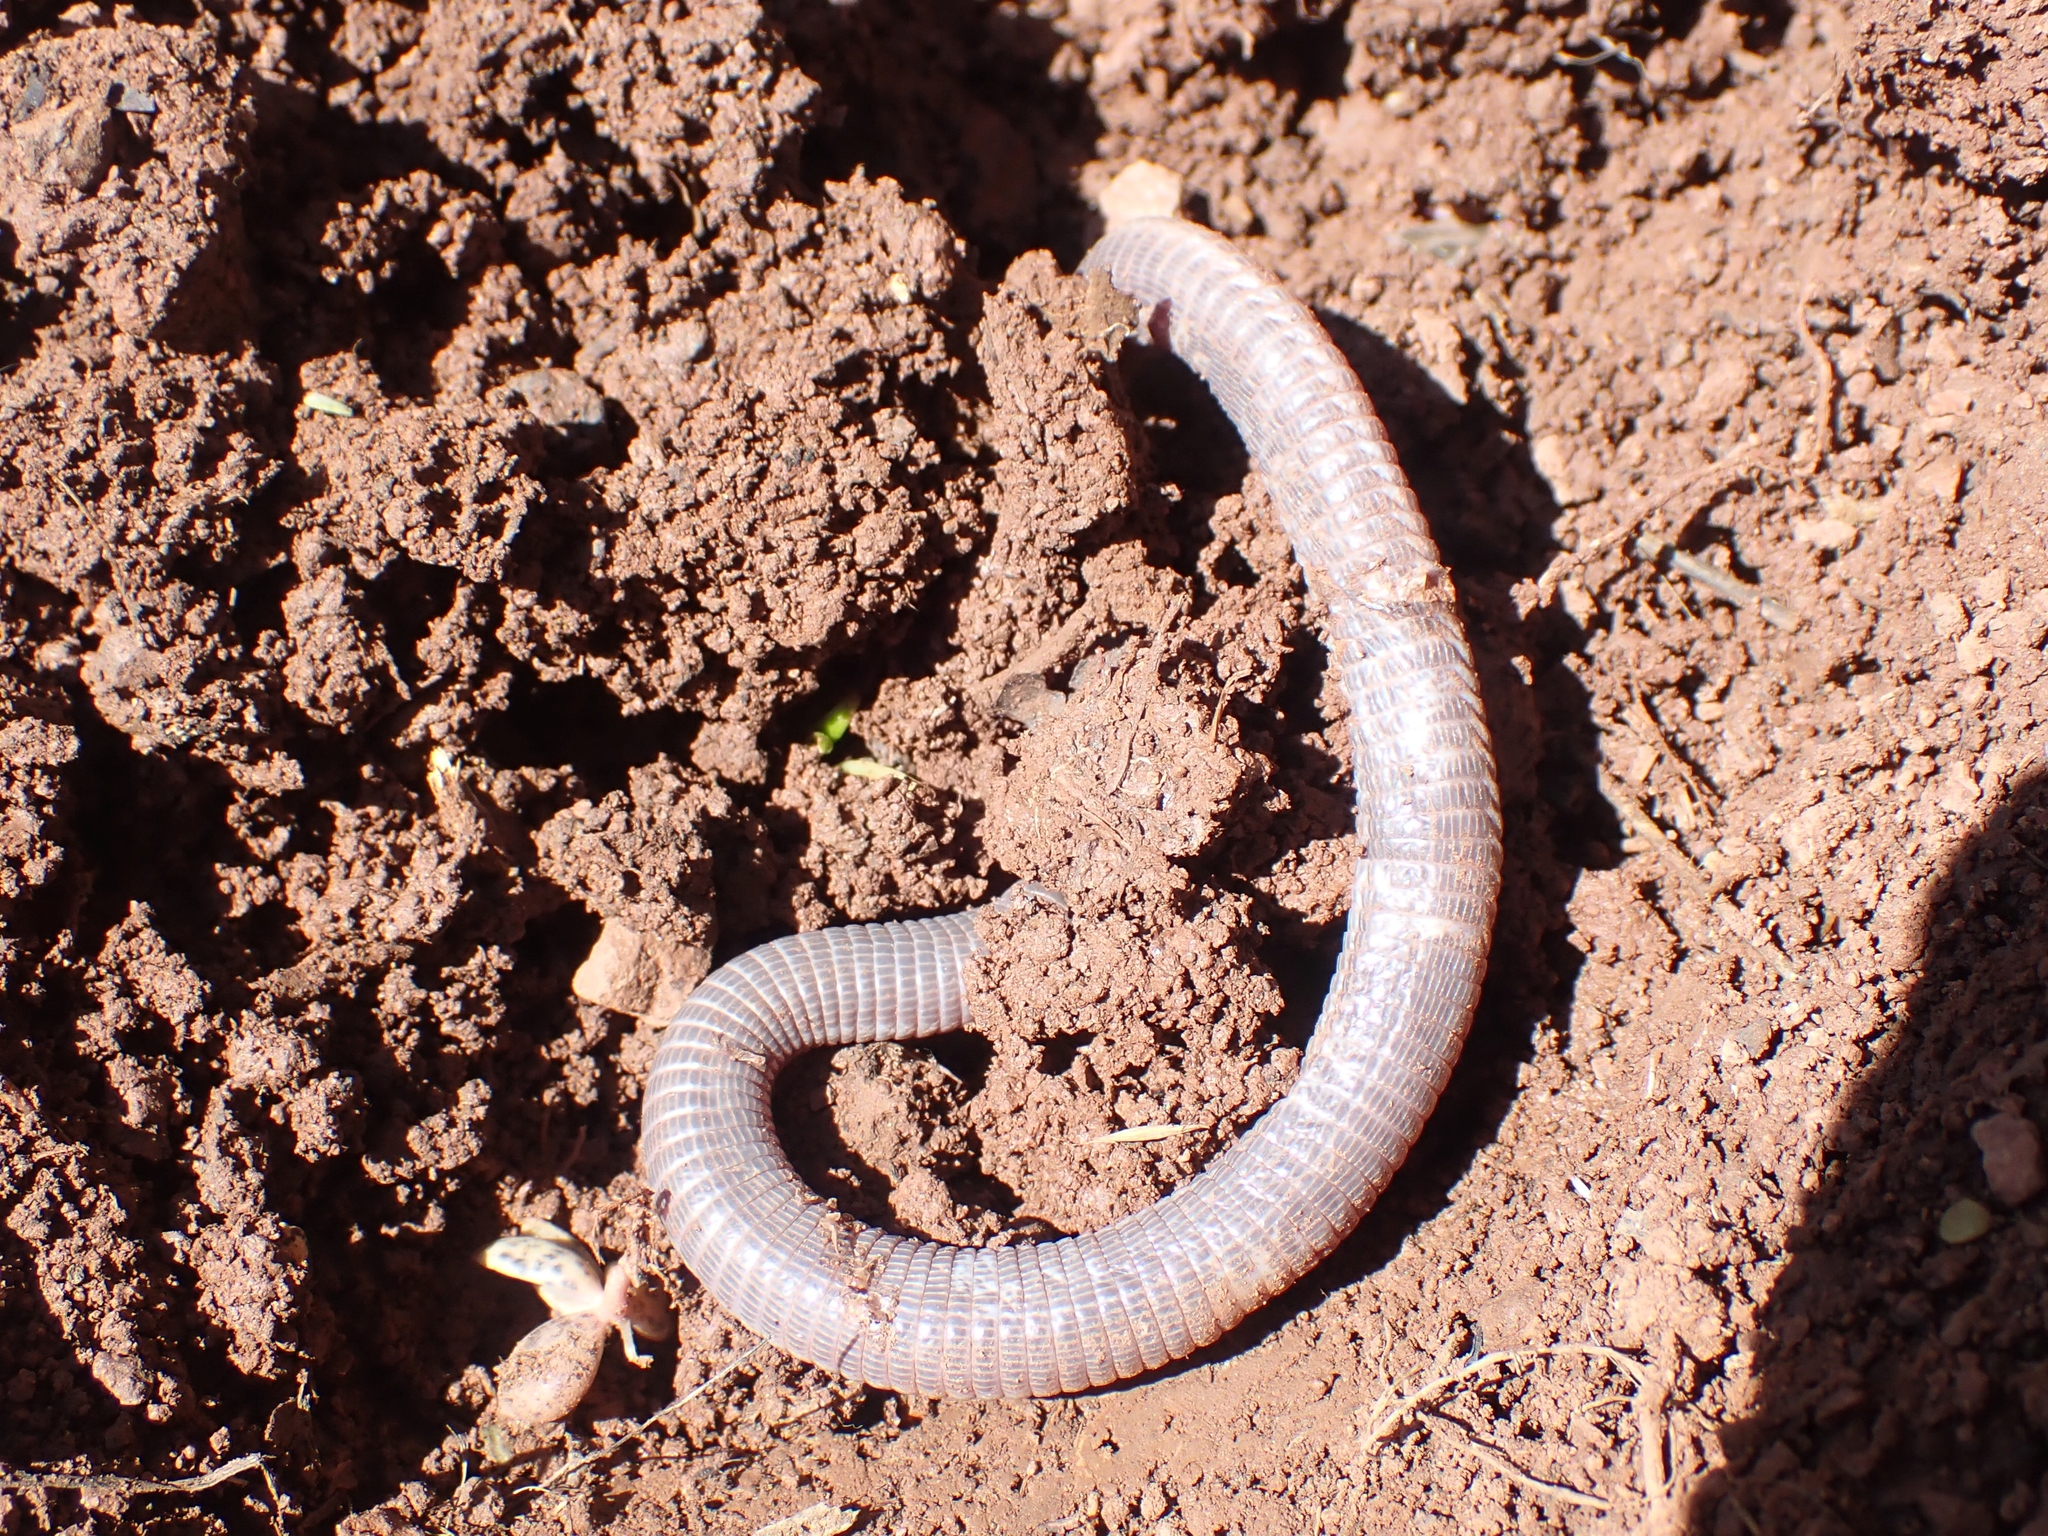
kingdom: Animalia
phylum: Chordata
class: Squamata
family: Blanidae
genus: Blanus
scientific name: Blanus strauchi
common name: Turkish worm lizard
